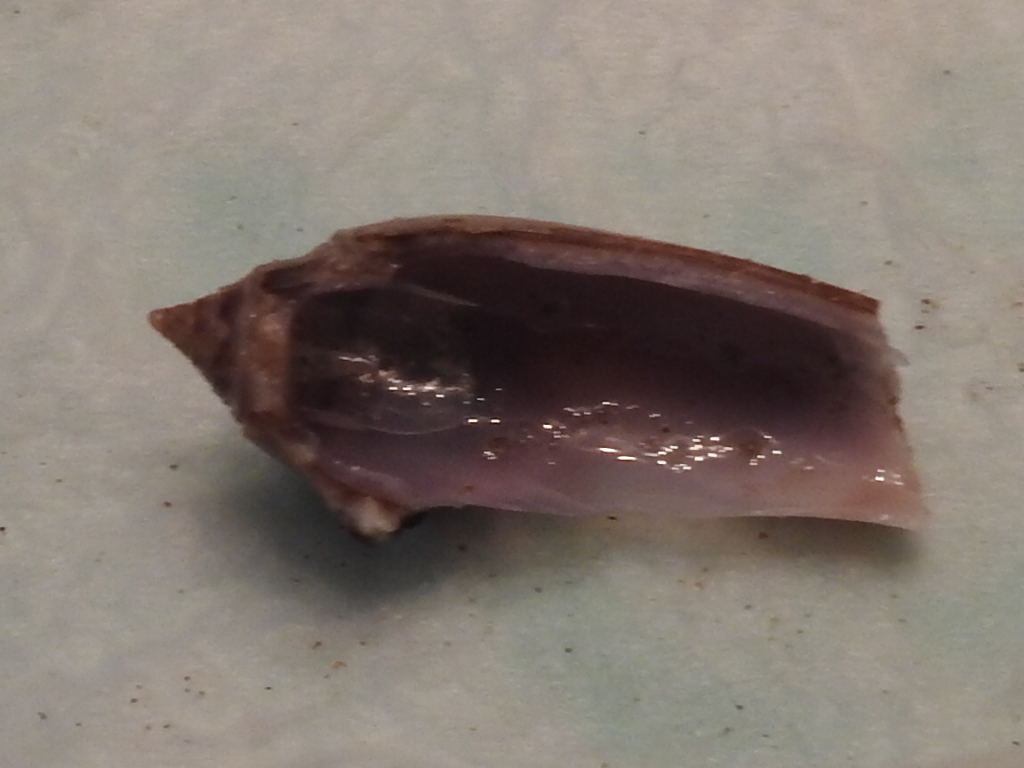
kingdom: Animalia
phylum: Mollusca
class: Gastropoda
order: Neogastropoda
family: Olividae
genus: Oliva
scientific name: Oliva sayana
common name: Lettered olive
